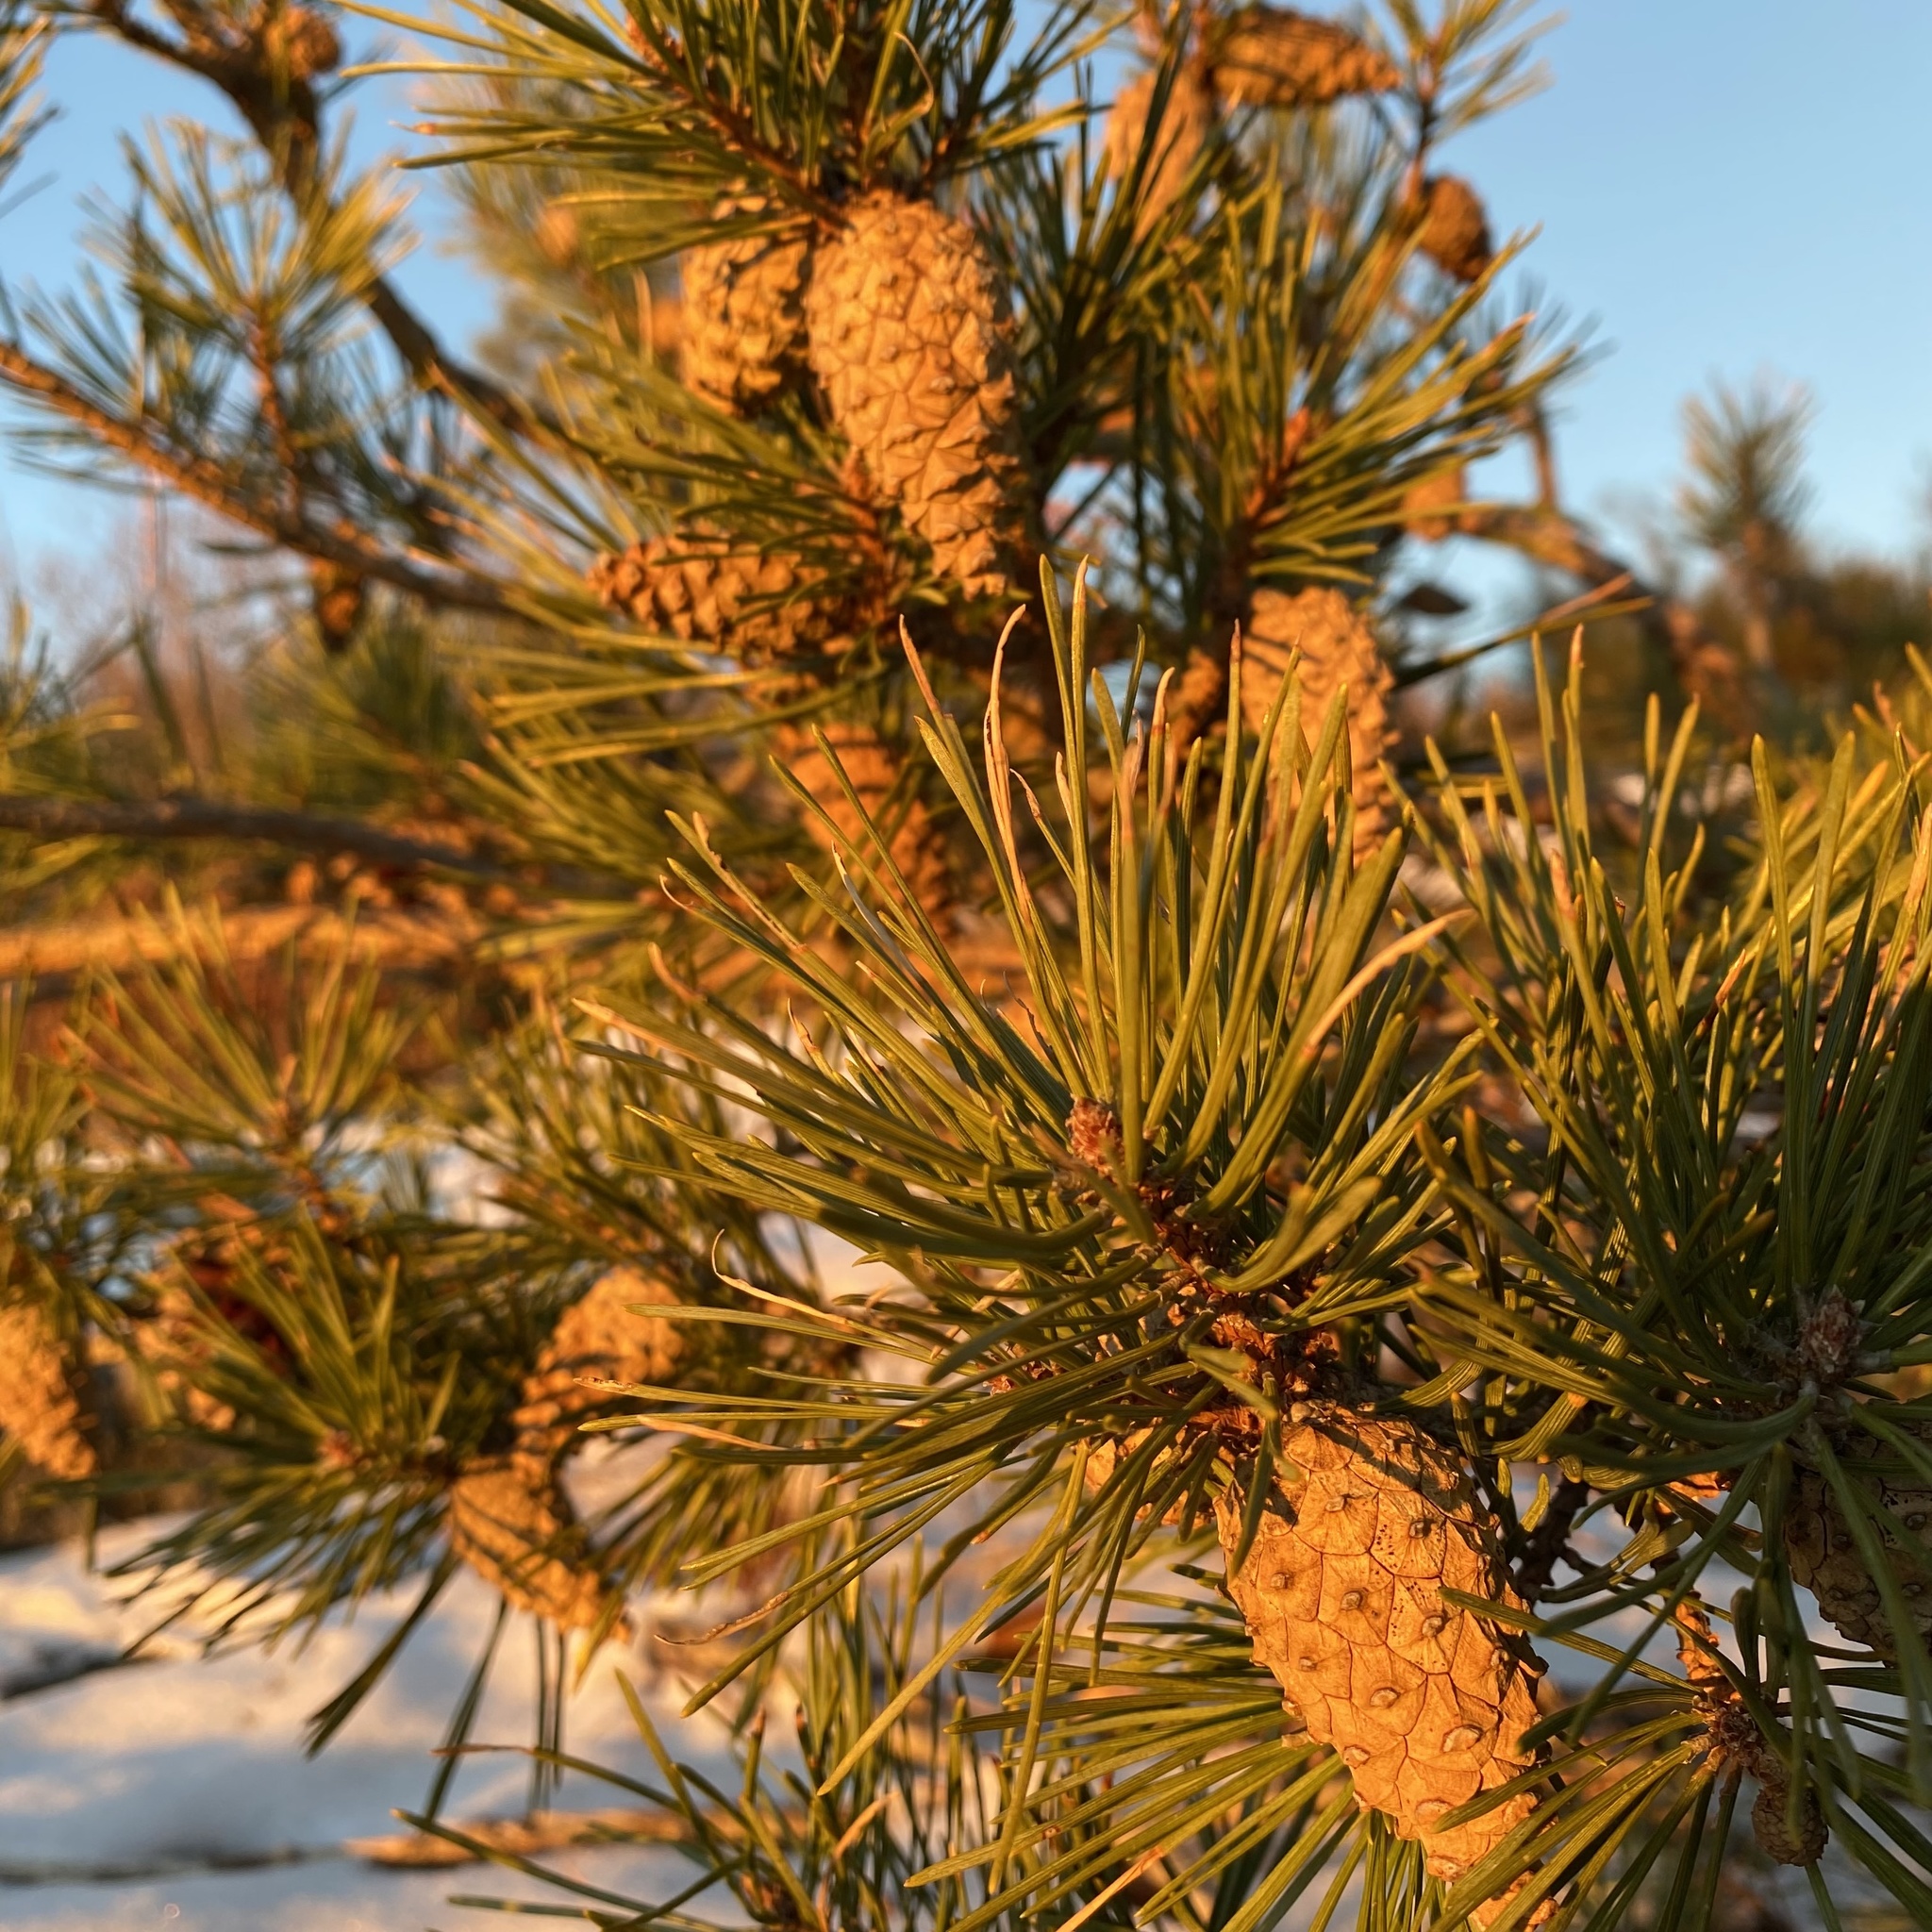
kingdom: Plantae
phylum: Tracheophyta
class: Pinopsida
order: Pinales
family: Pinaceae
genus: Pinus
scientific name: Pinus sylvestris
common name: Scots pine
